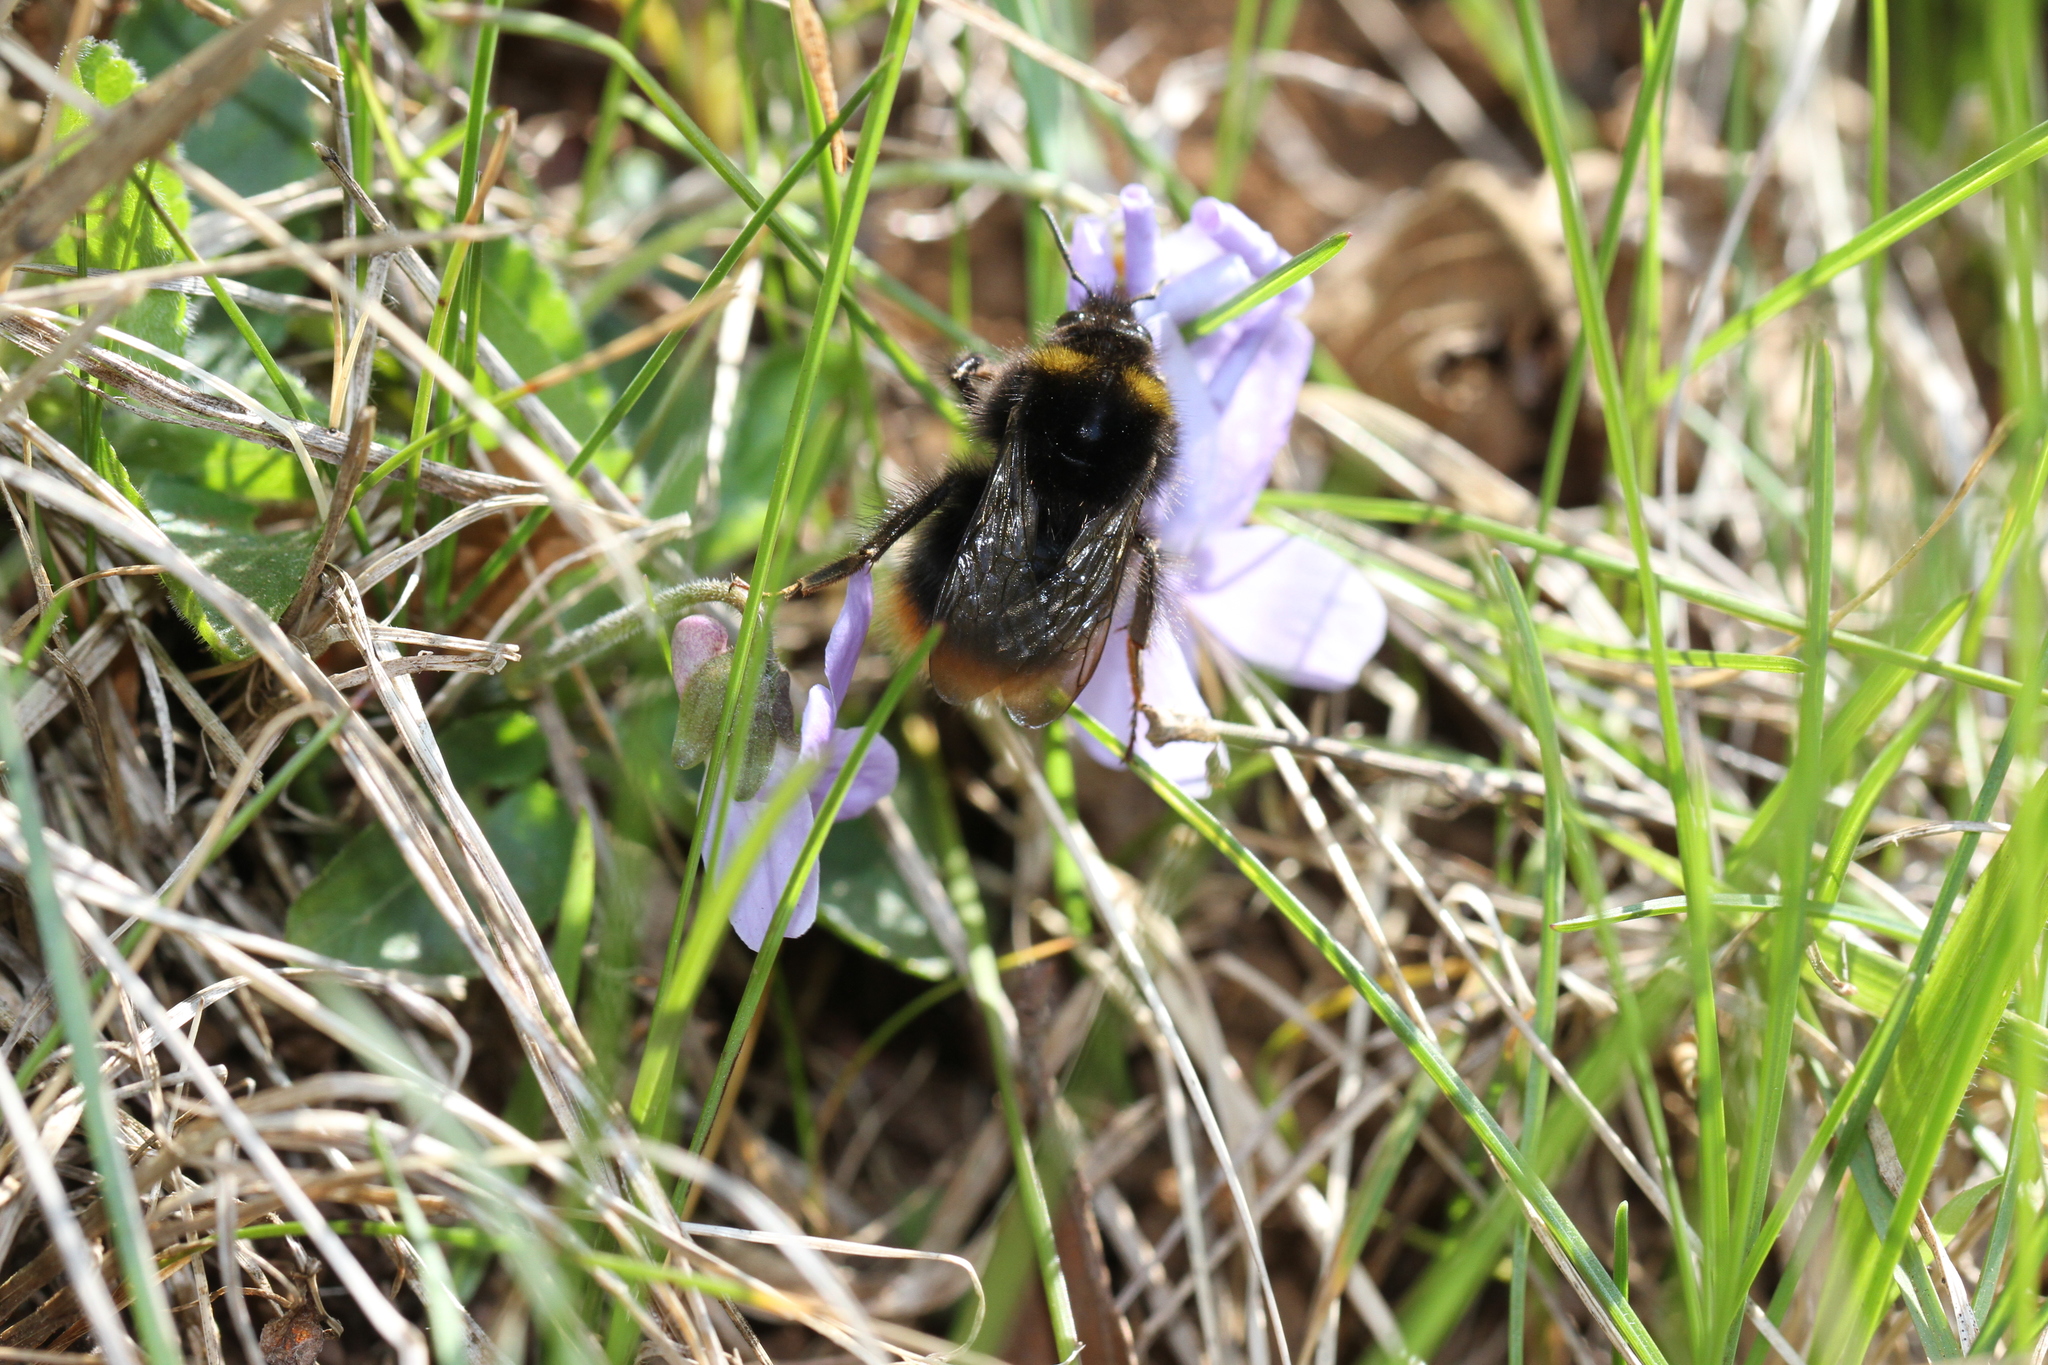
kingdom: Animalia
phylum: Arthropoda
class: Insecta
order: Hymenoptera
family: Apidae
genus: Bombus
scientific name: Bombus pratorum
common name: Early humble-bee
